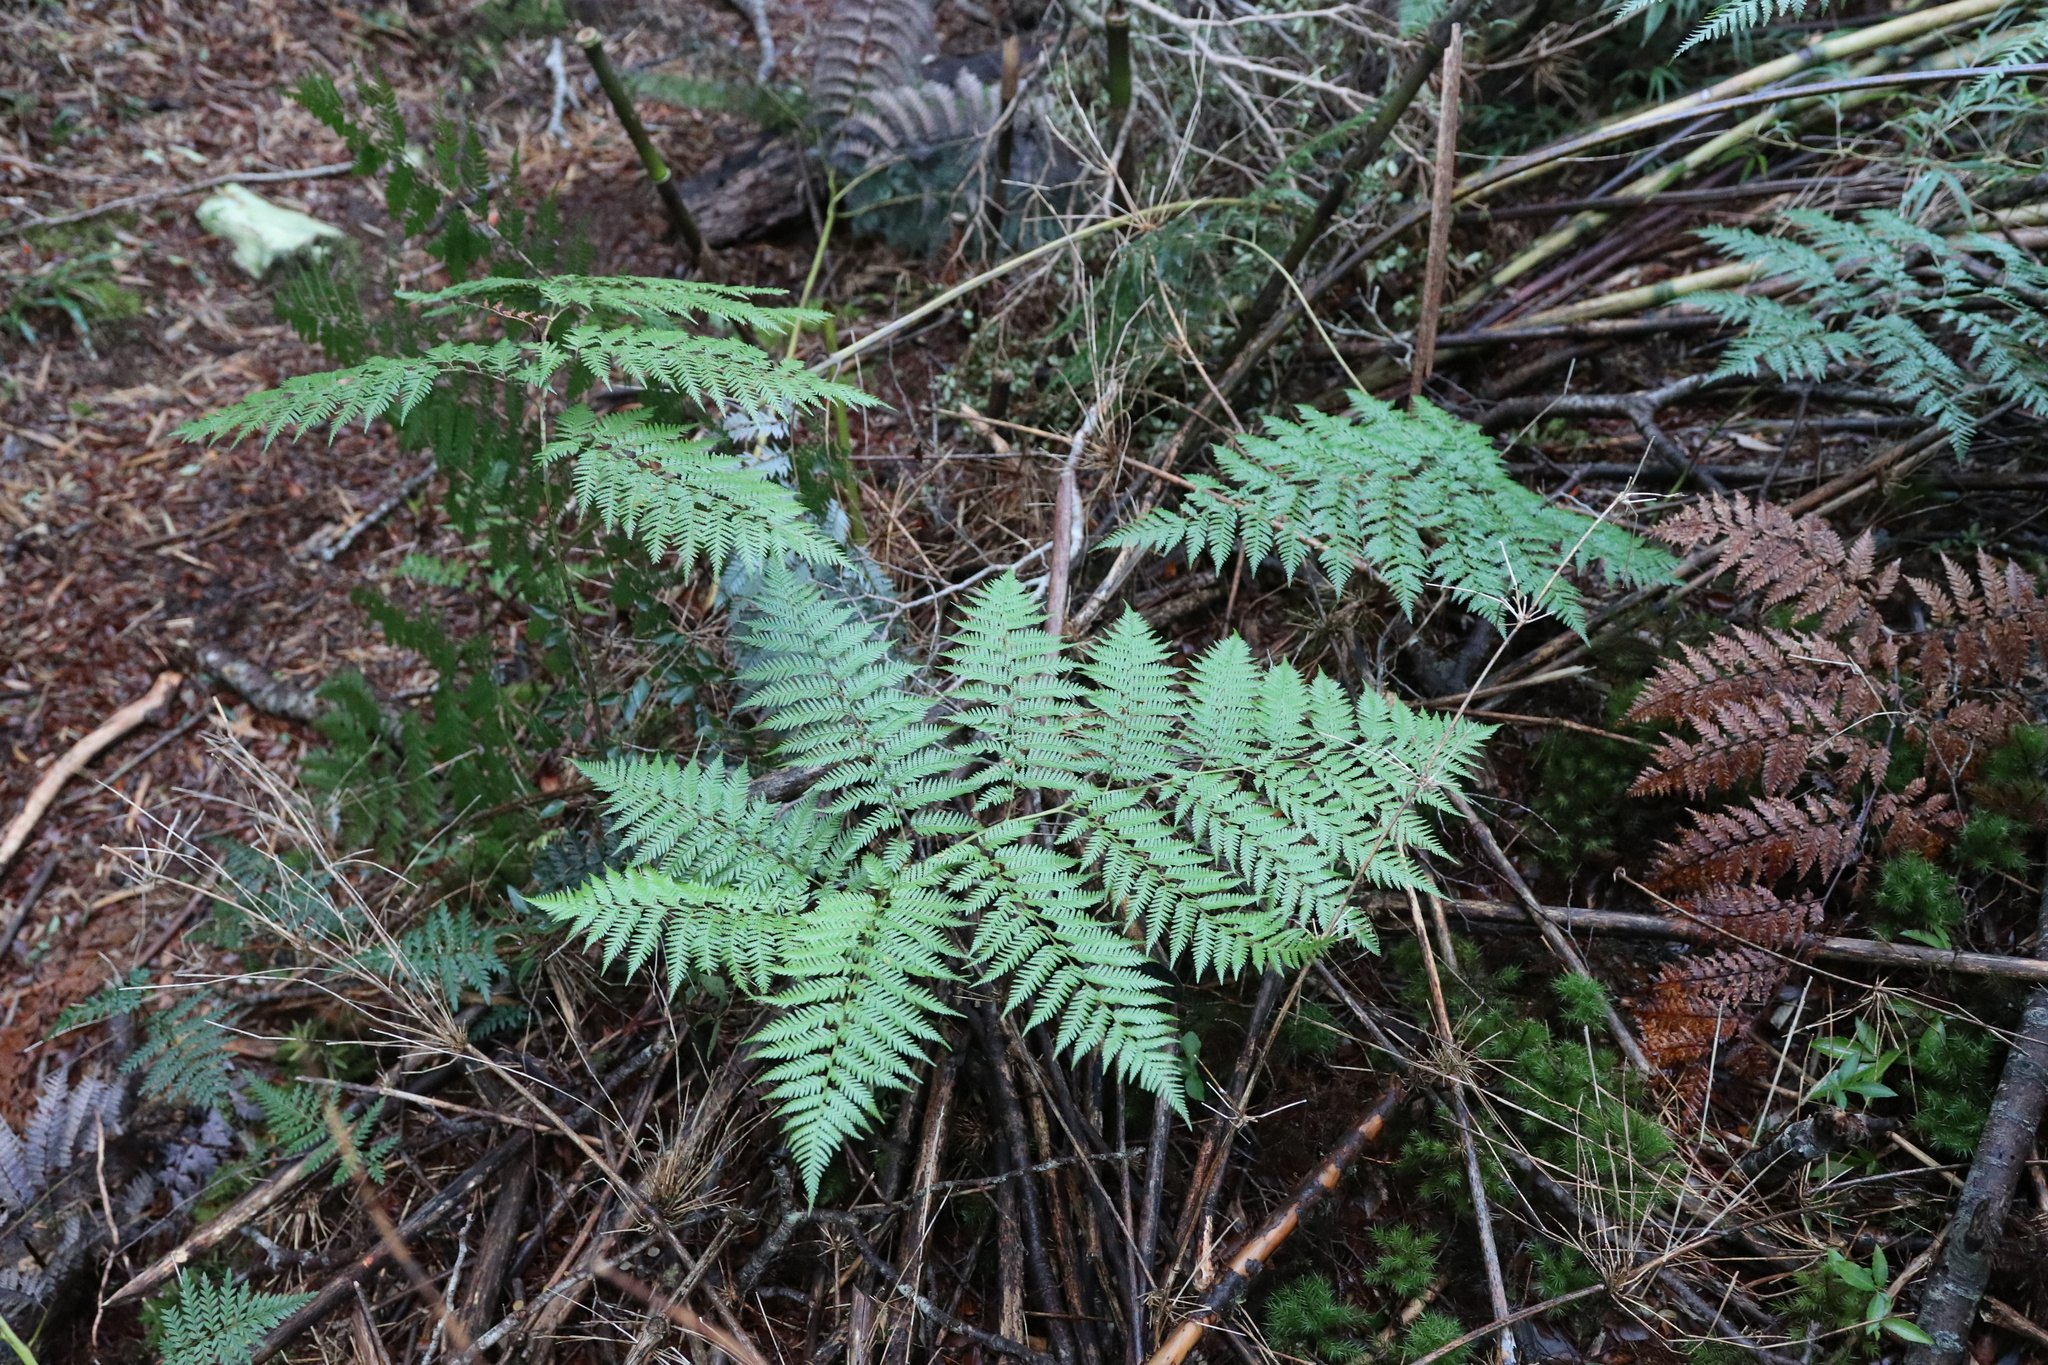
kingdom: Plantae
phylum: Tracheophyta
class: Polypodiopsida
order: Cyatheales
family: Dicksoniaceae
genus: Lophosoria
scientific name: Lophosoria quadripinnata
